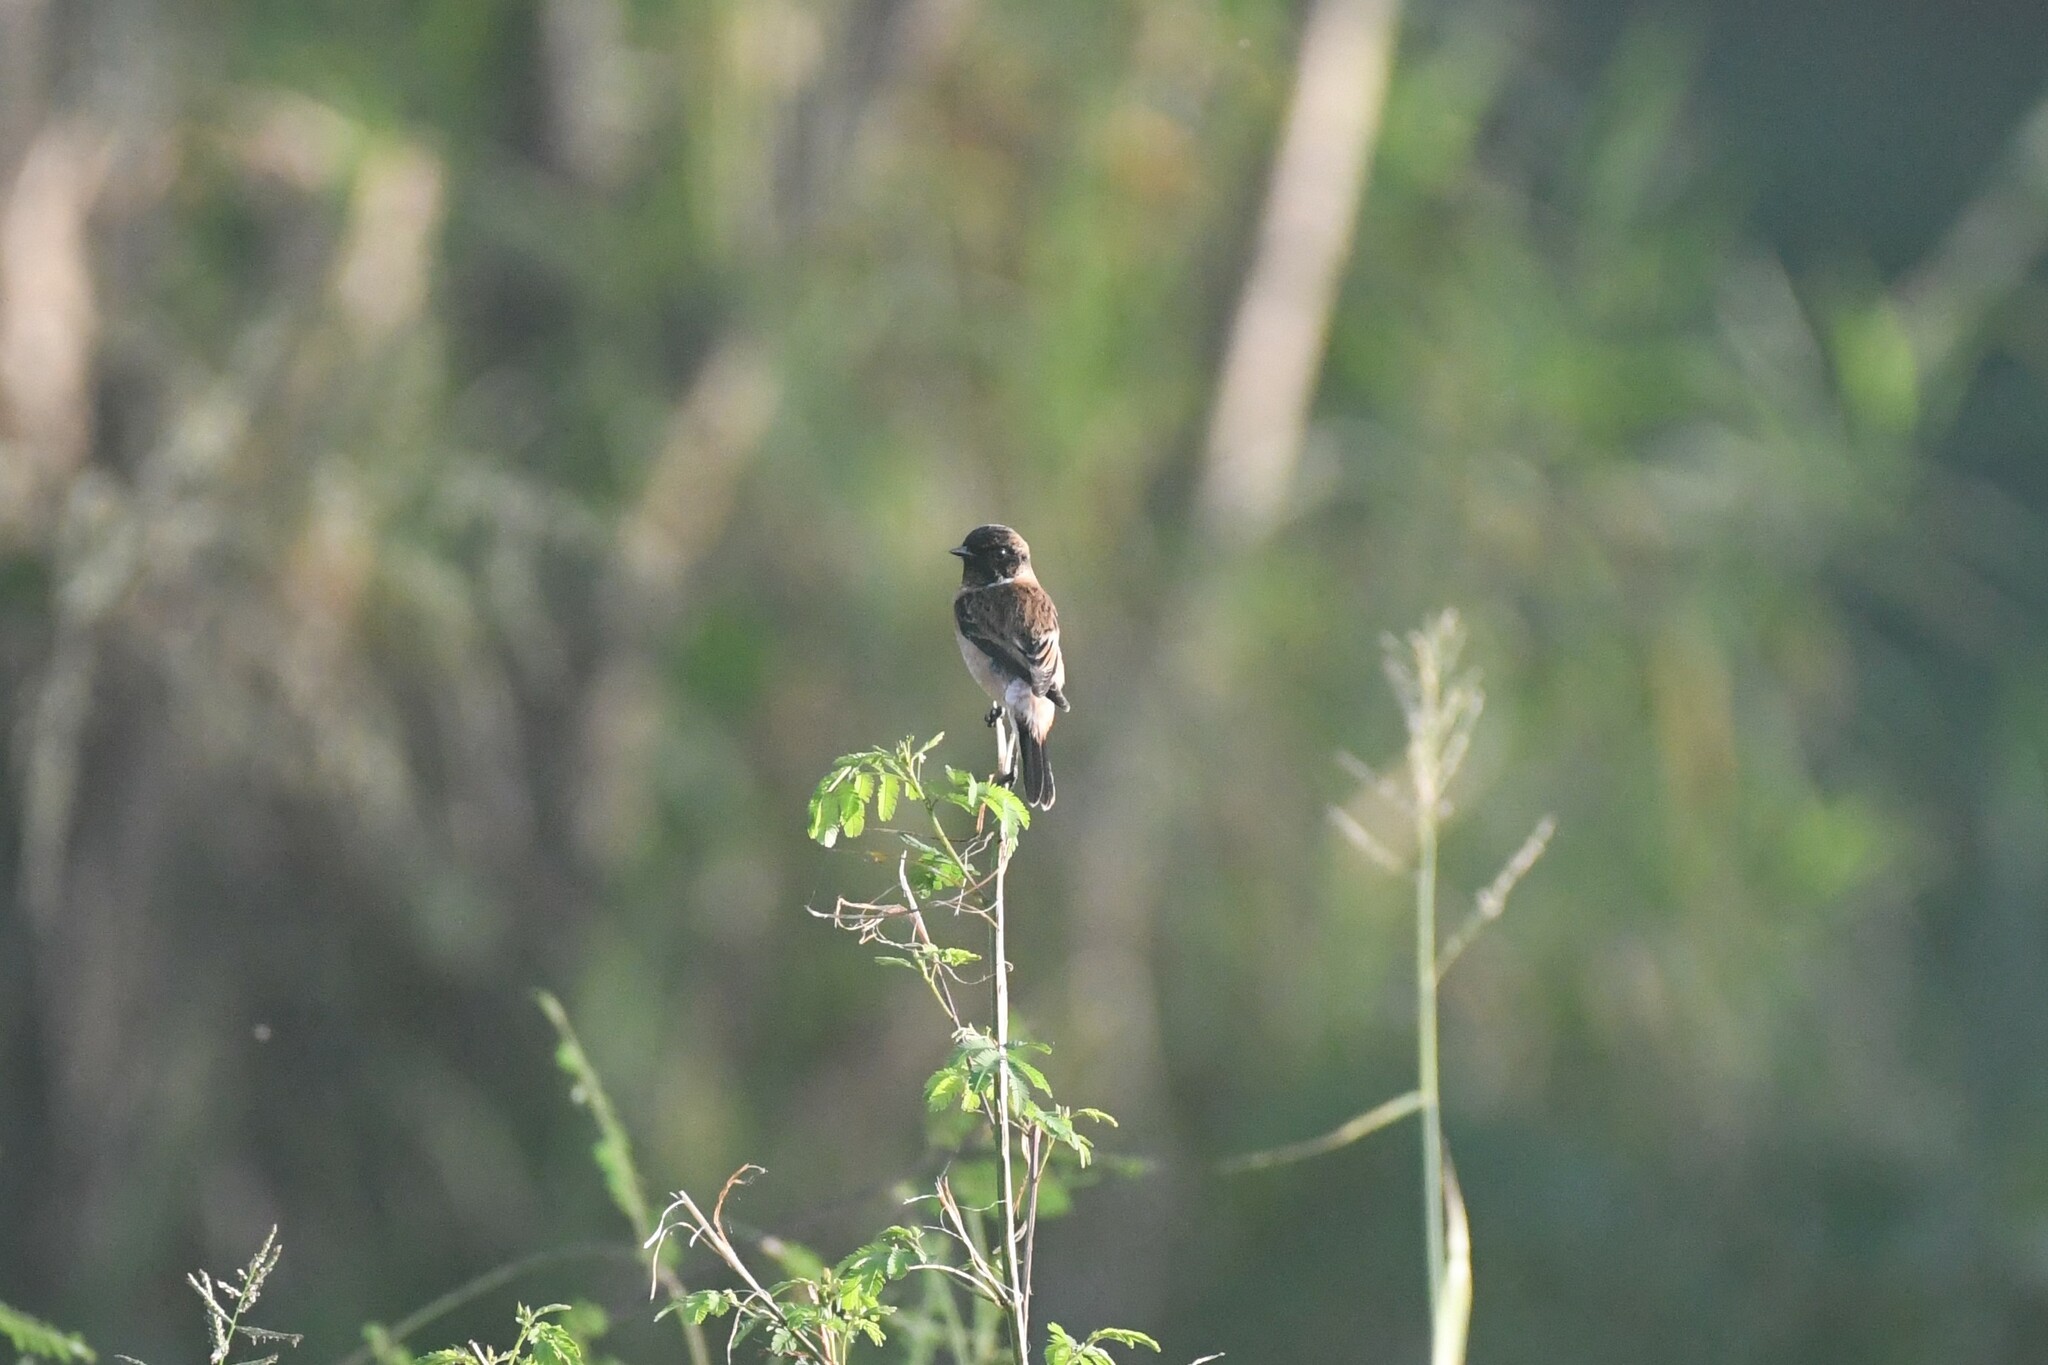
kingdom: Animalia
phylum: Chordata
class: Aves
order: Passeriformes
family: Muscicapidae
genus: Saxicola
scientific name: Saxicola stejnegeri
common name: Stejneger's stonechat
